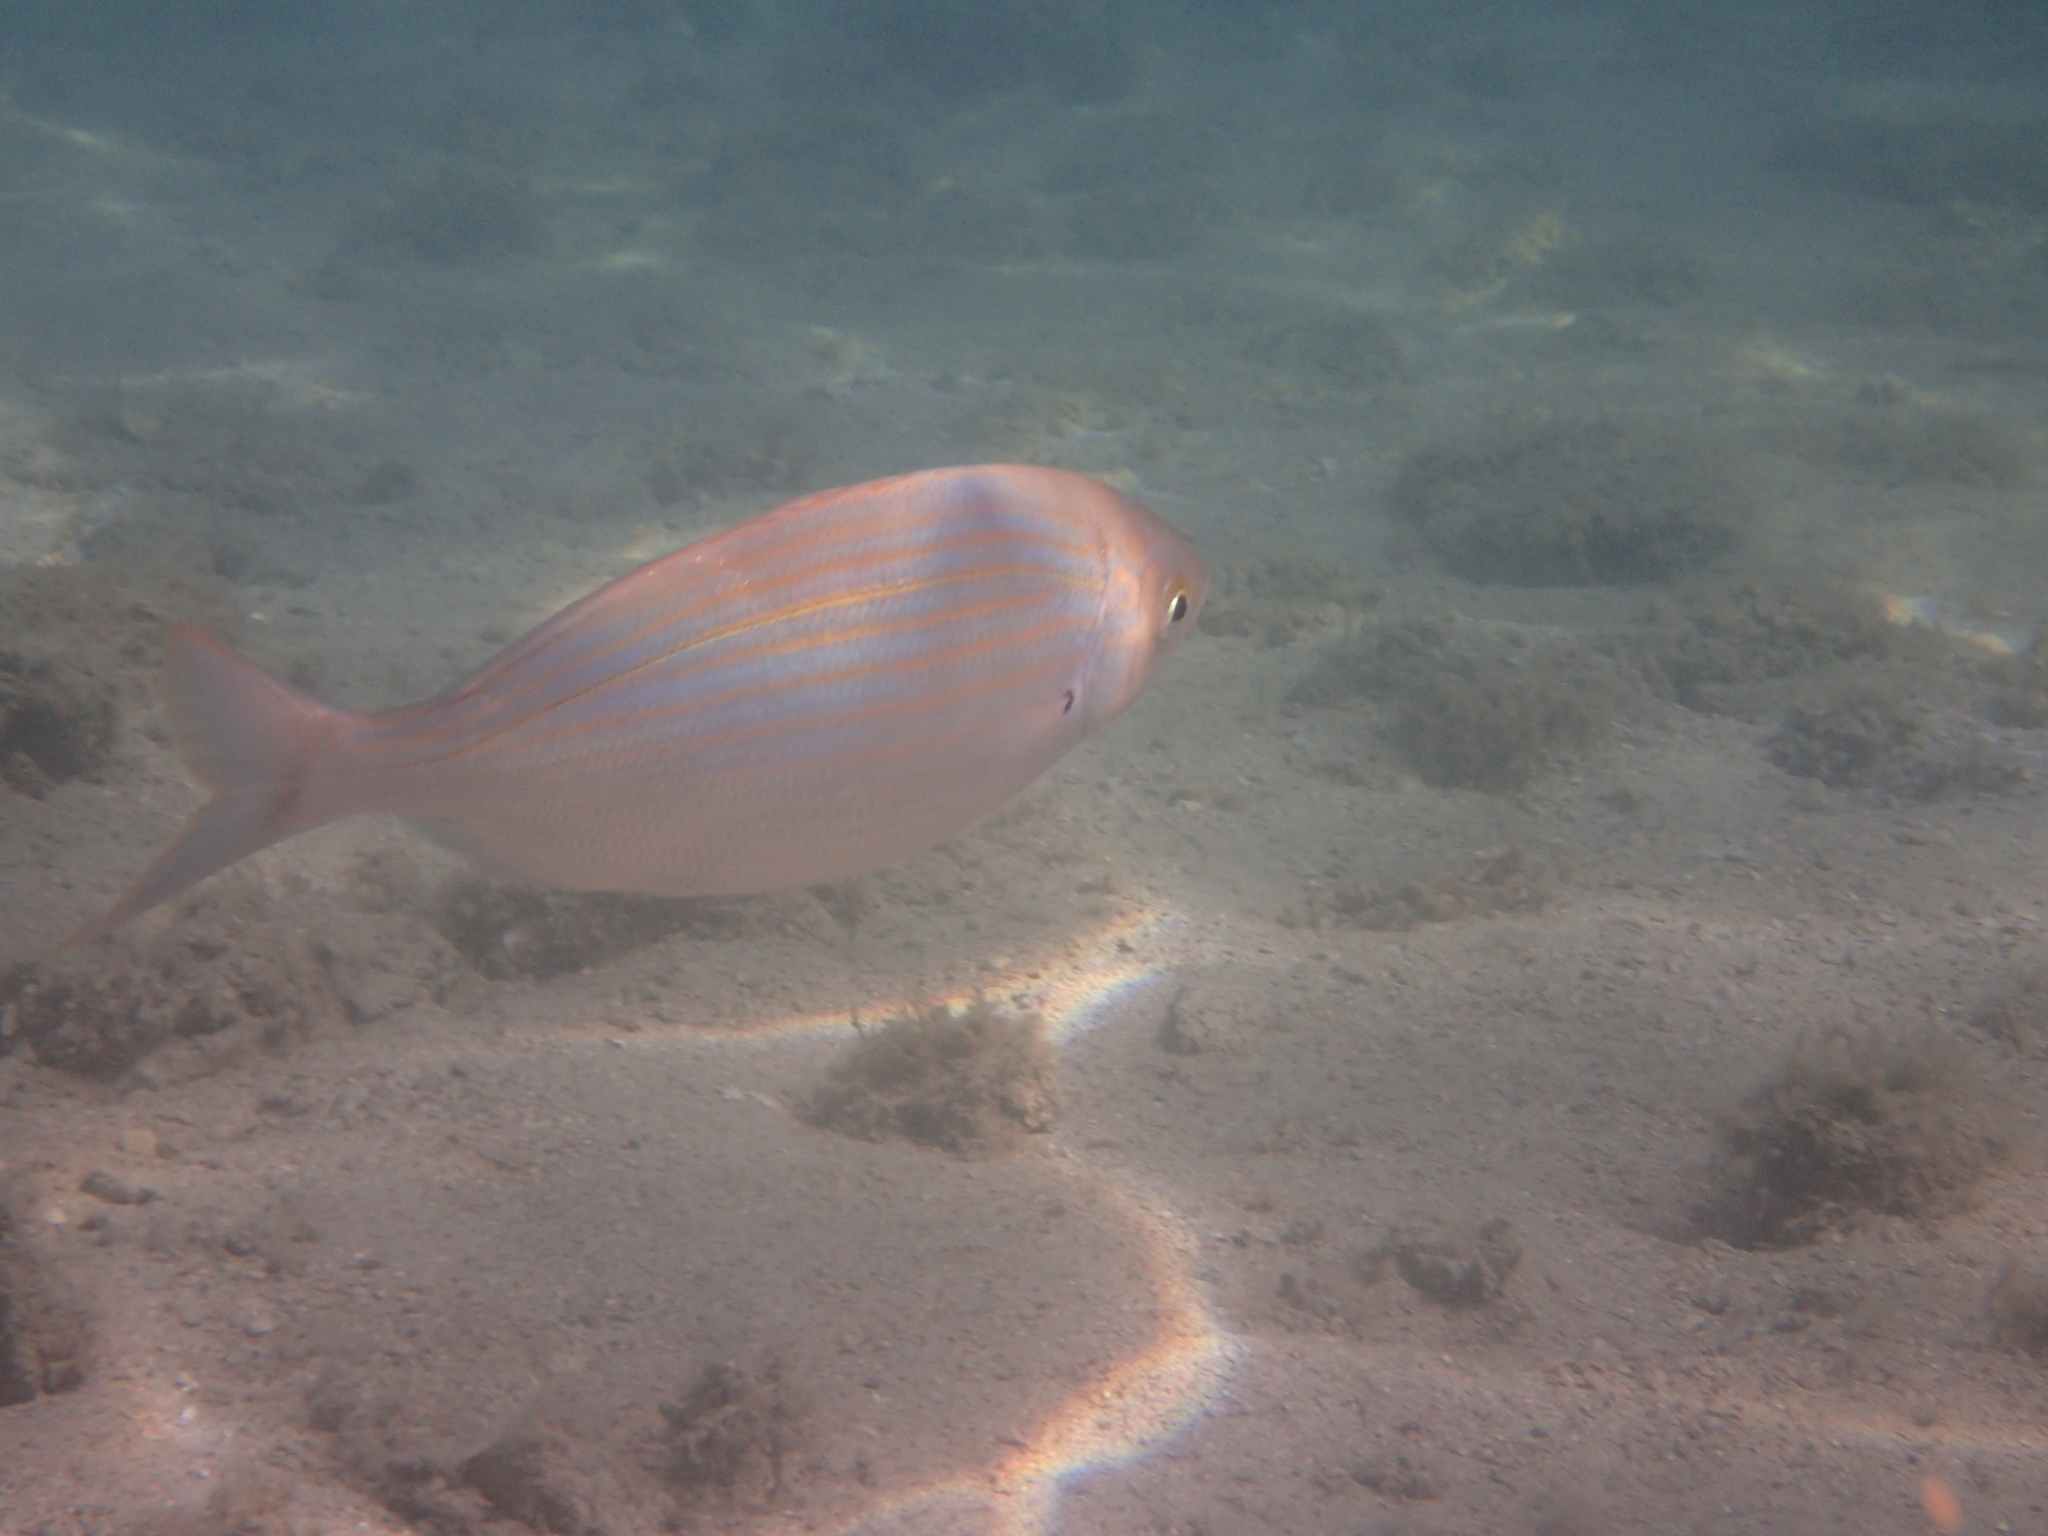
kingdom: Animalia
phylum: Chordata
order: Perciformes
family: Sparidae
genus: Sarpa
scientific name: Sarpa salpa
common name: Salema
